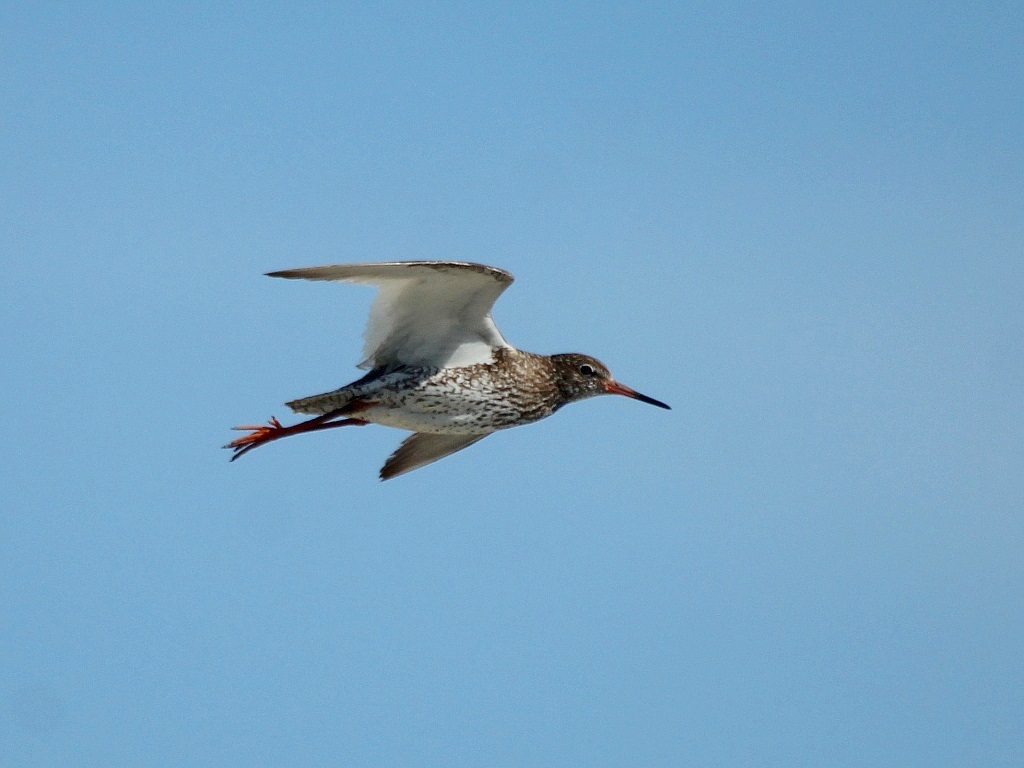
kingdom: Animalia
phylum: Chordata
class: Aves
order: Charadriiformes
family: Scolopacidae
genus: Tringa
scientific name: Tringa totanus
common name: Common redshank
